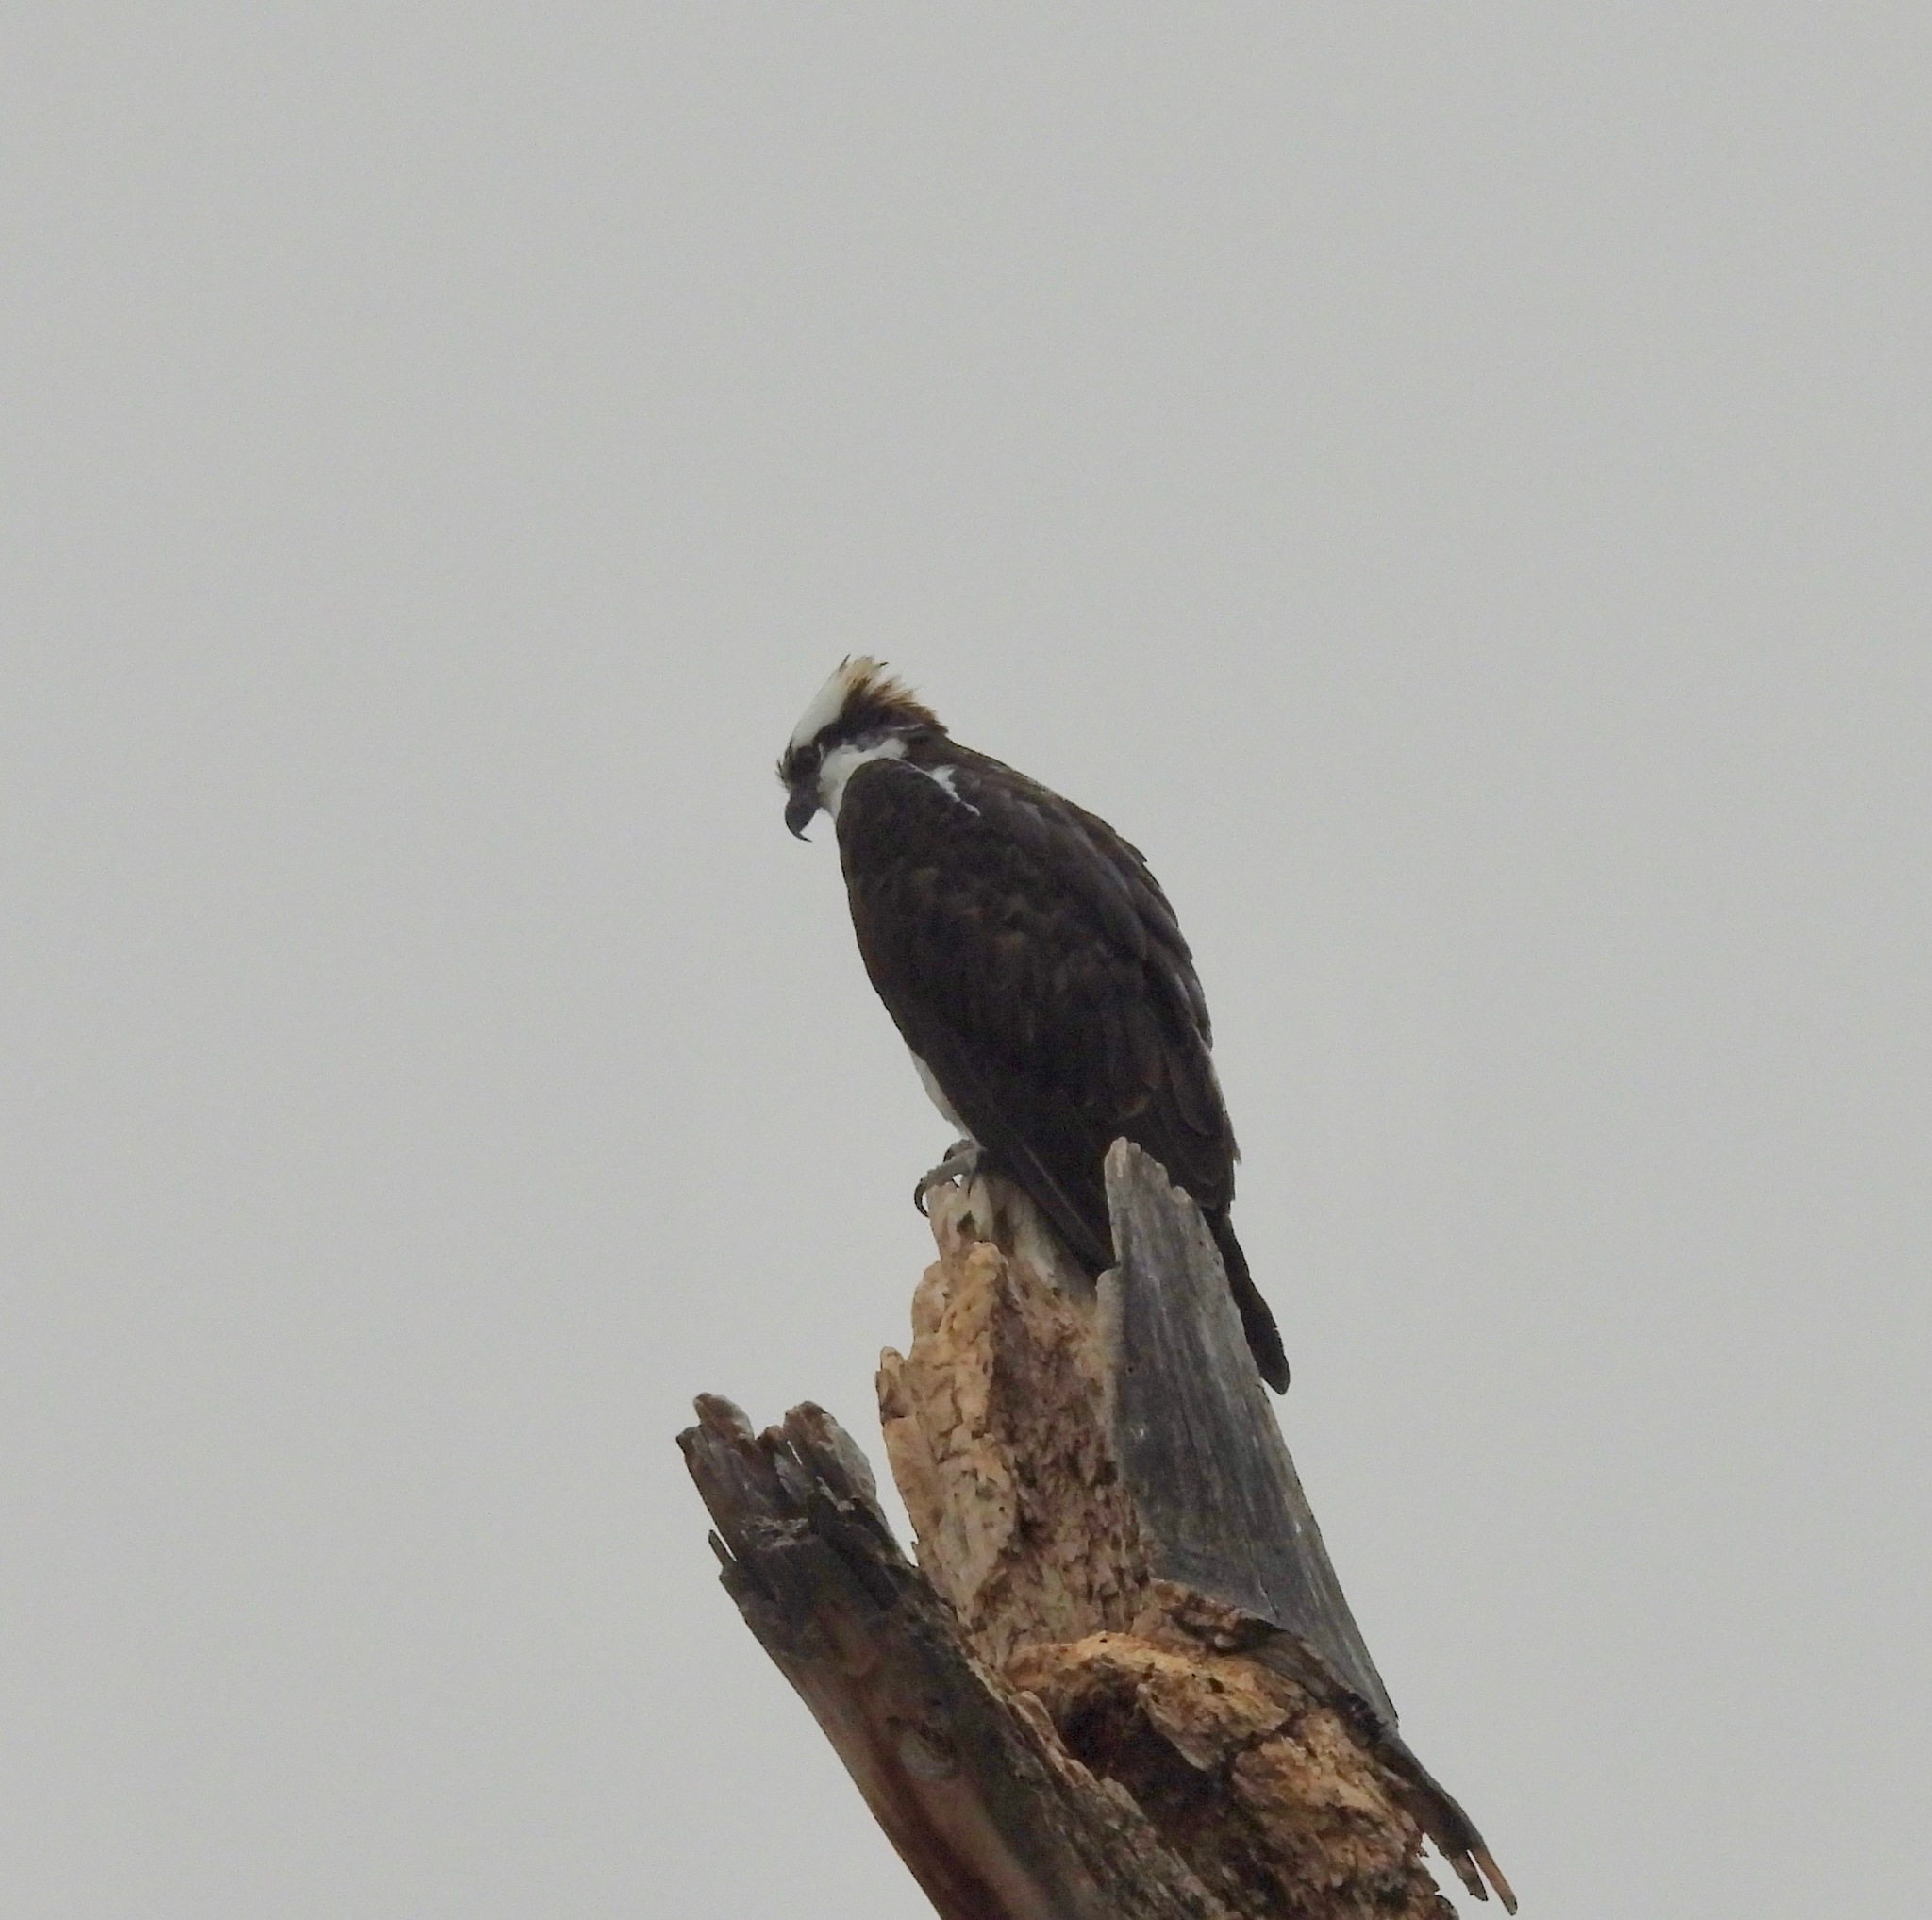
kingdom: Animalia
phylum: Chordata
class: Aves
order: Accipitriformes
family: Pandionidae
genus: Pandion
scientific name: Pandion haliaetus
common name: Osprey
